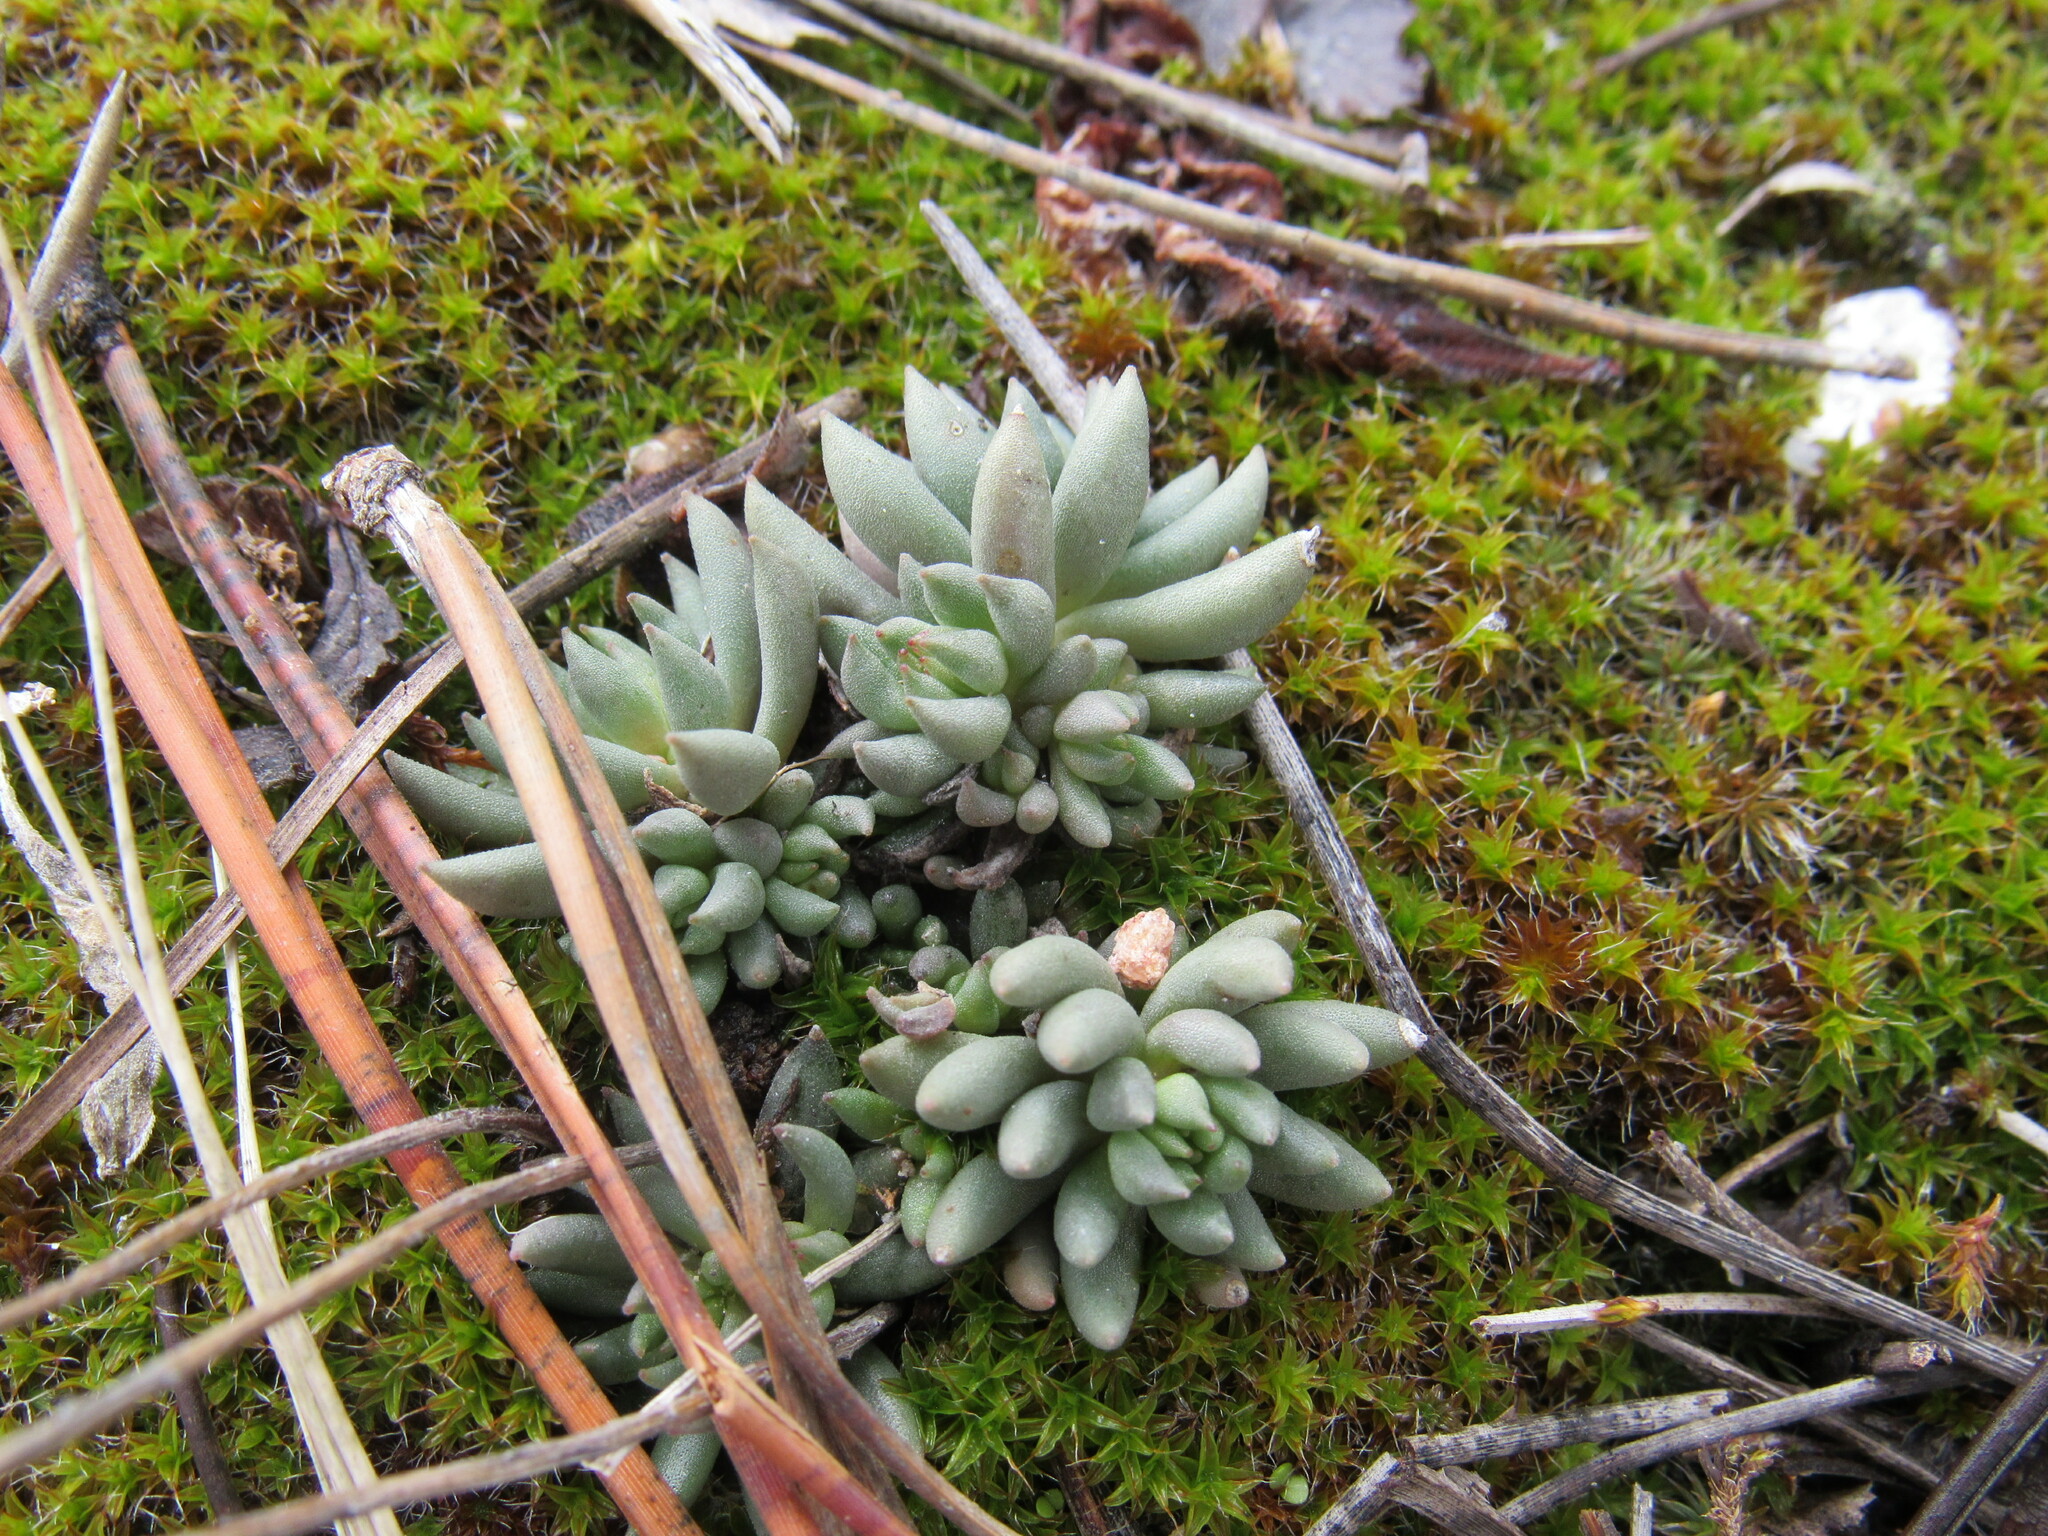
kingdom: Plantae
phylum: Tracheophyta
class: Magnoliopsida
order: Saxifragales
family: Crassulaceae
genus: Sedum
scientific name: Sedum lanceolatum
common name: Common stonecrop
